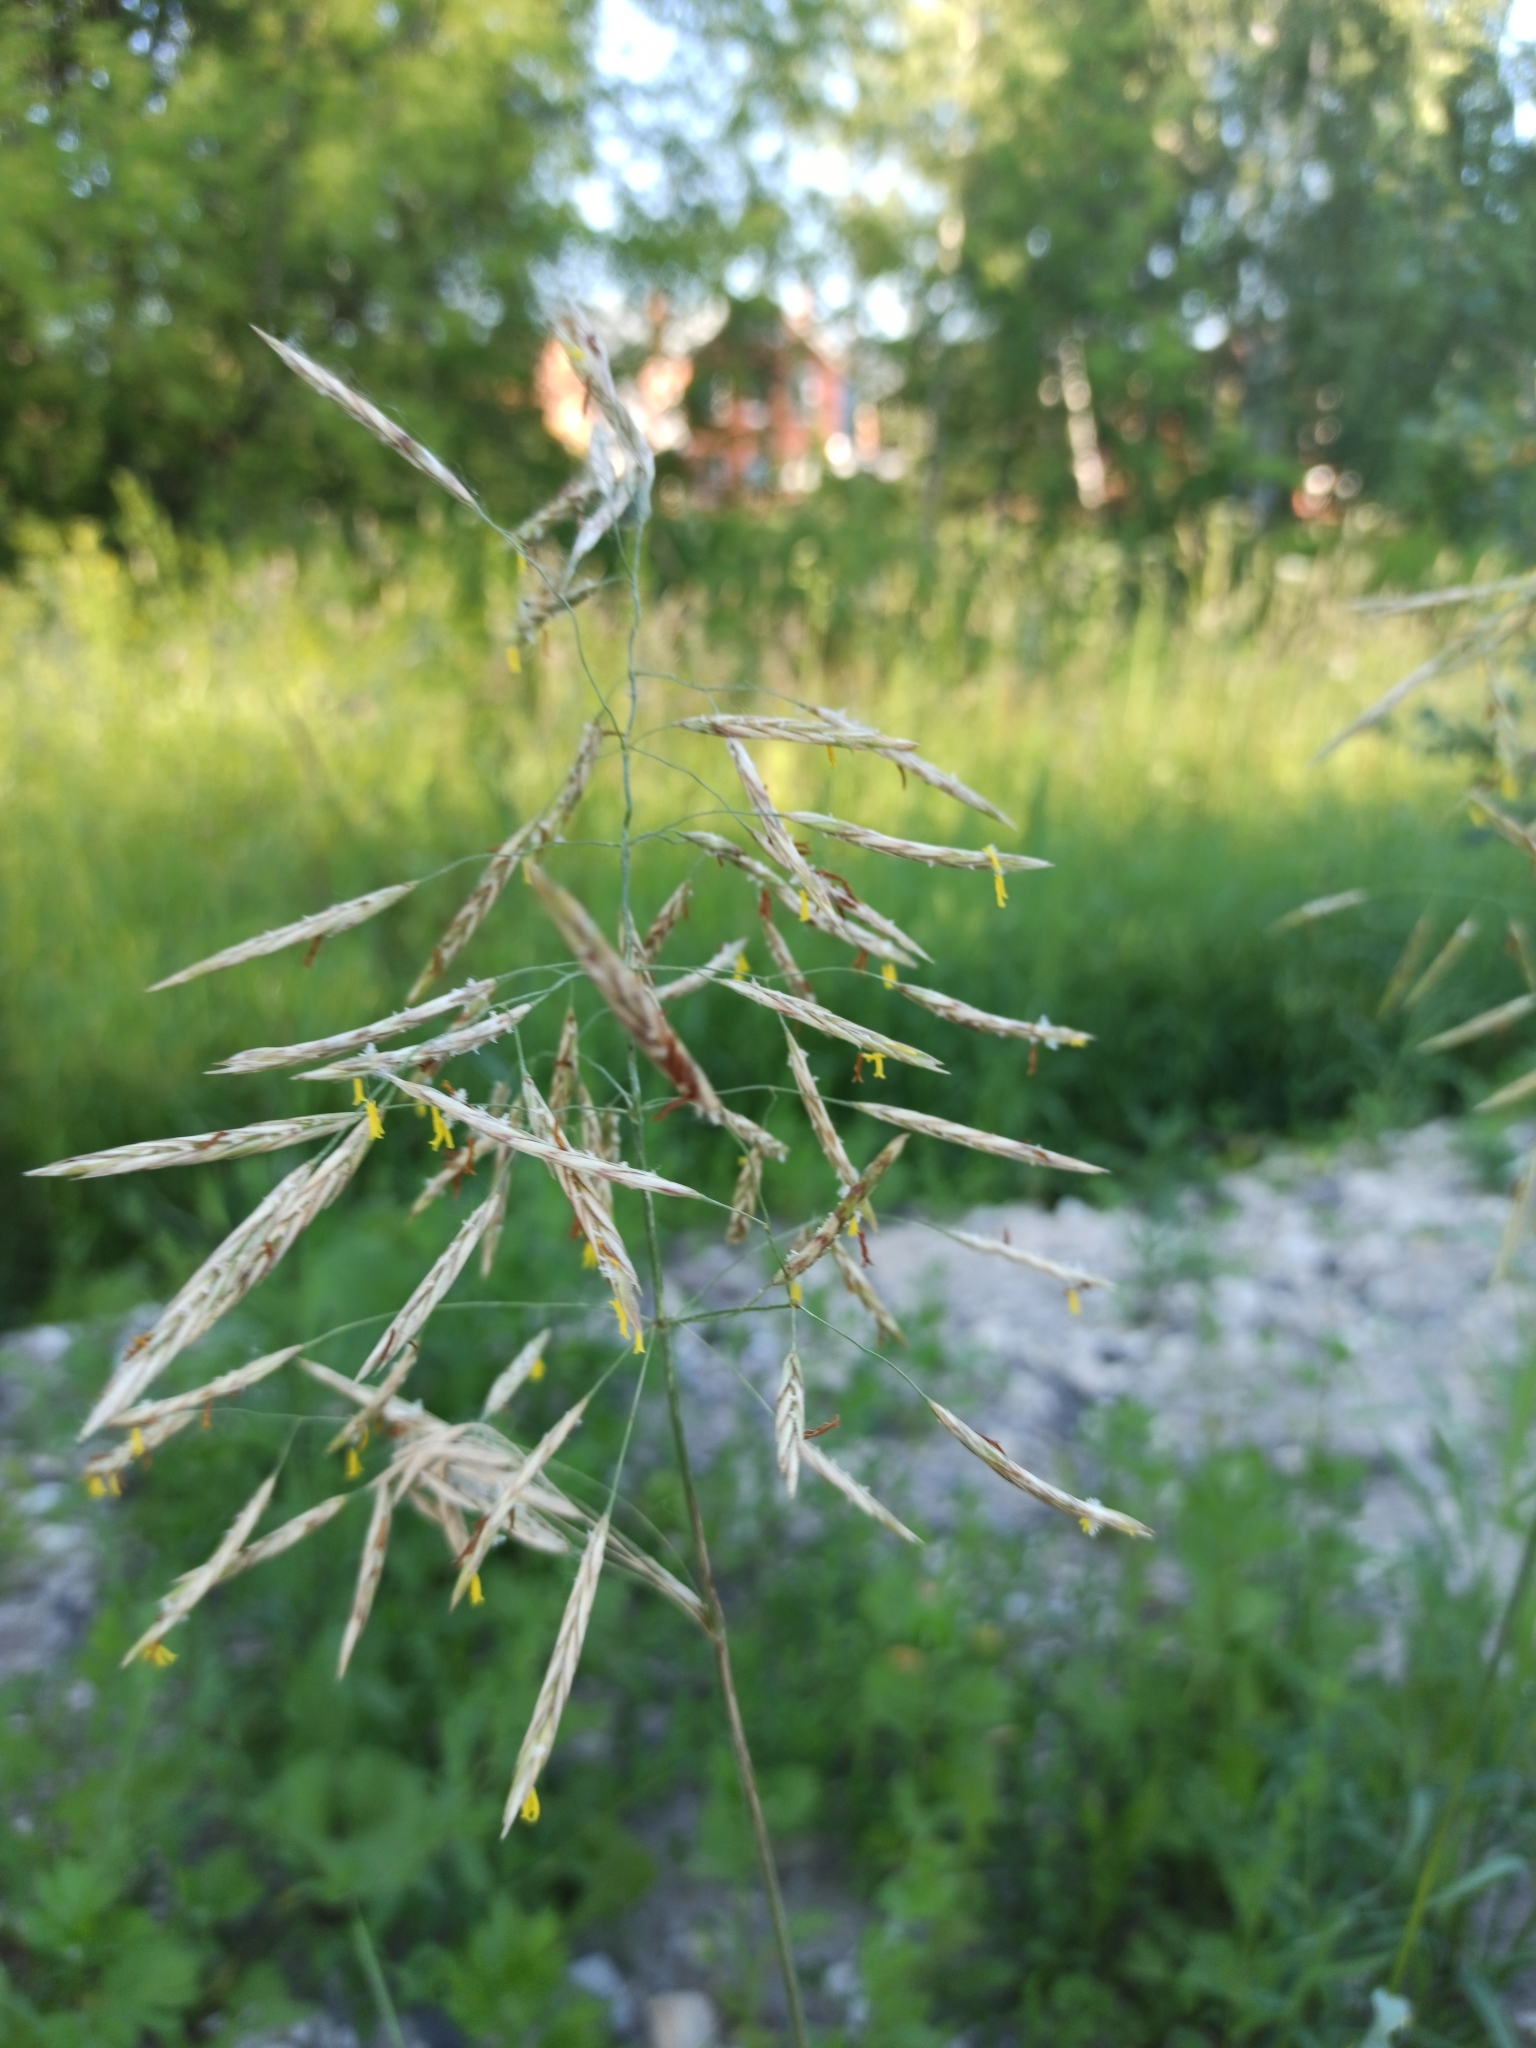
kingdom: Plantae
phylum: Tracheophyta
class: Liliopsida
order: Poales
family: Poaceae
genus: Bromus
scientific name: Bromus inermis
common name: Smooth brome
